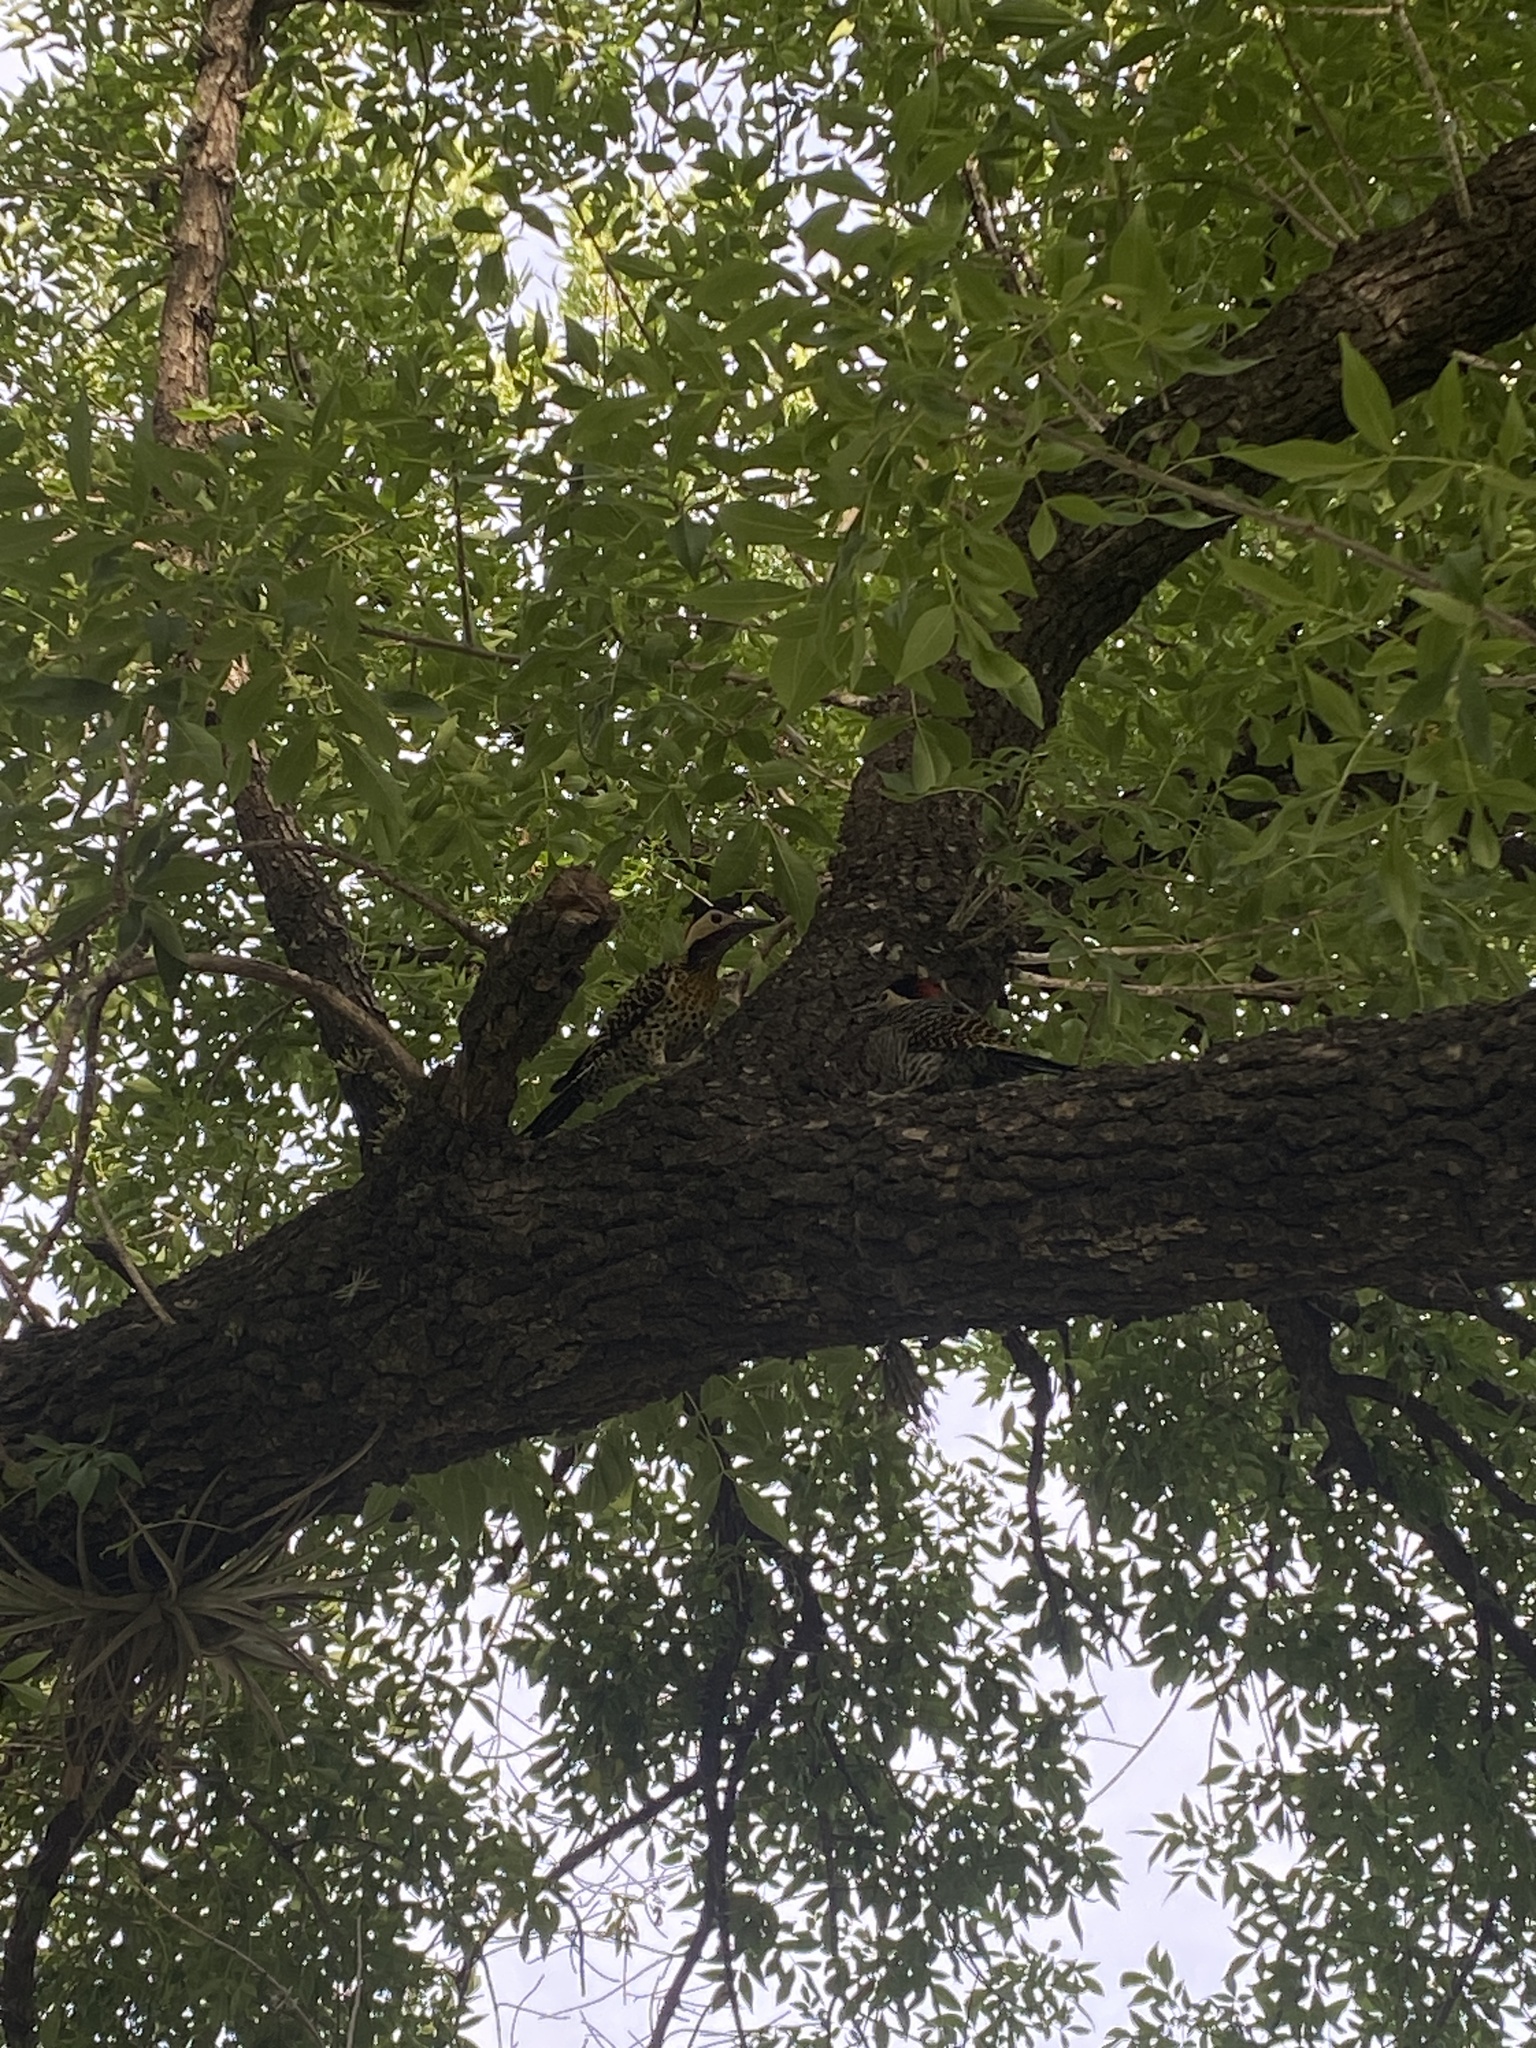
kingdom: Animalia
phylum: Chordata
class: Aves
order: Piciformes
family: Picidae
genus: Colaptes
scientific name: Colaptes melanochloros
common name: Green-barred woodpecker
